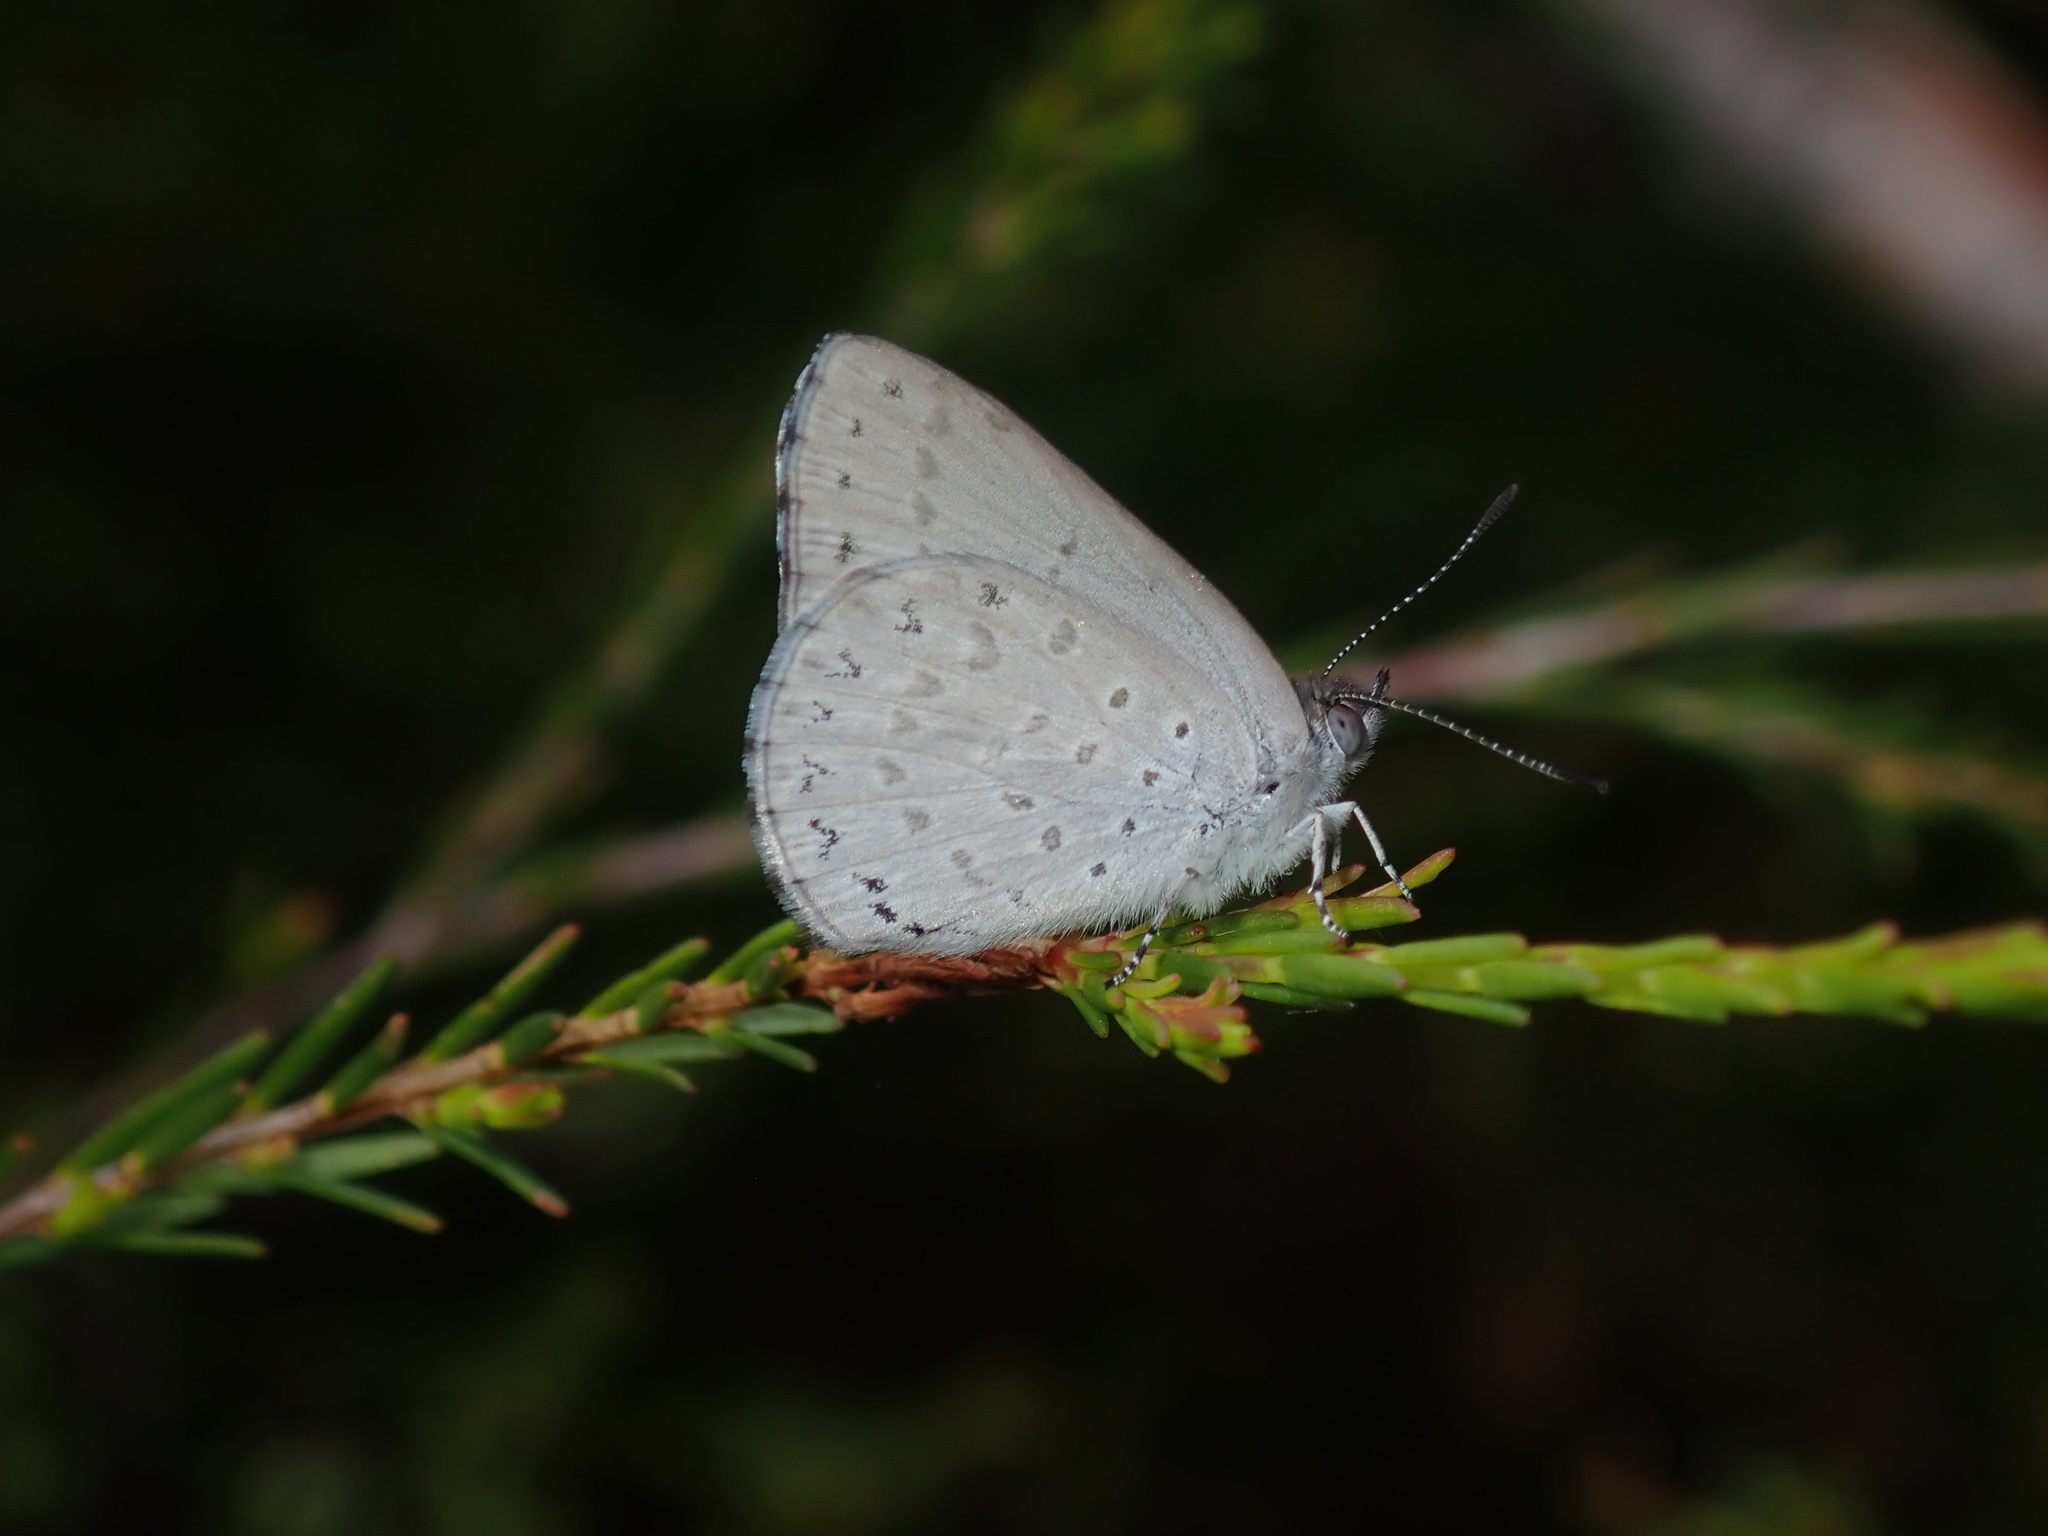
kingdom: Animalia
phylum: Arthropoda
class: Insecta
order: Lepidoptera
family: Lycaenidae
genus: Candalides
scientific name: Candalides
